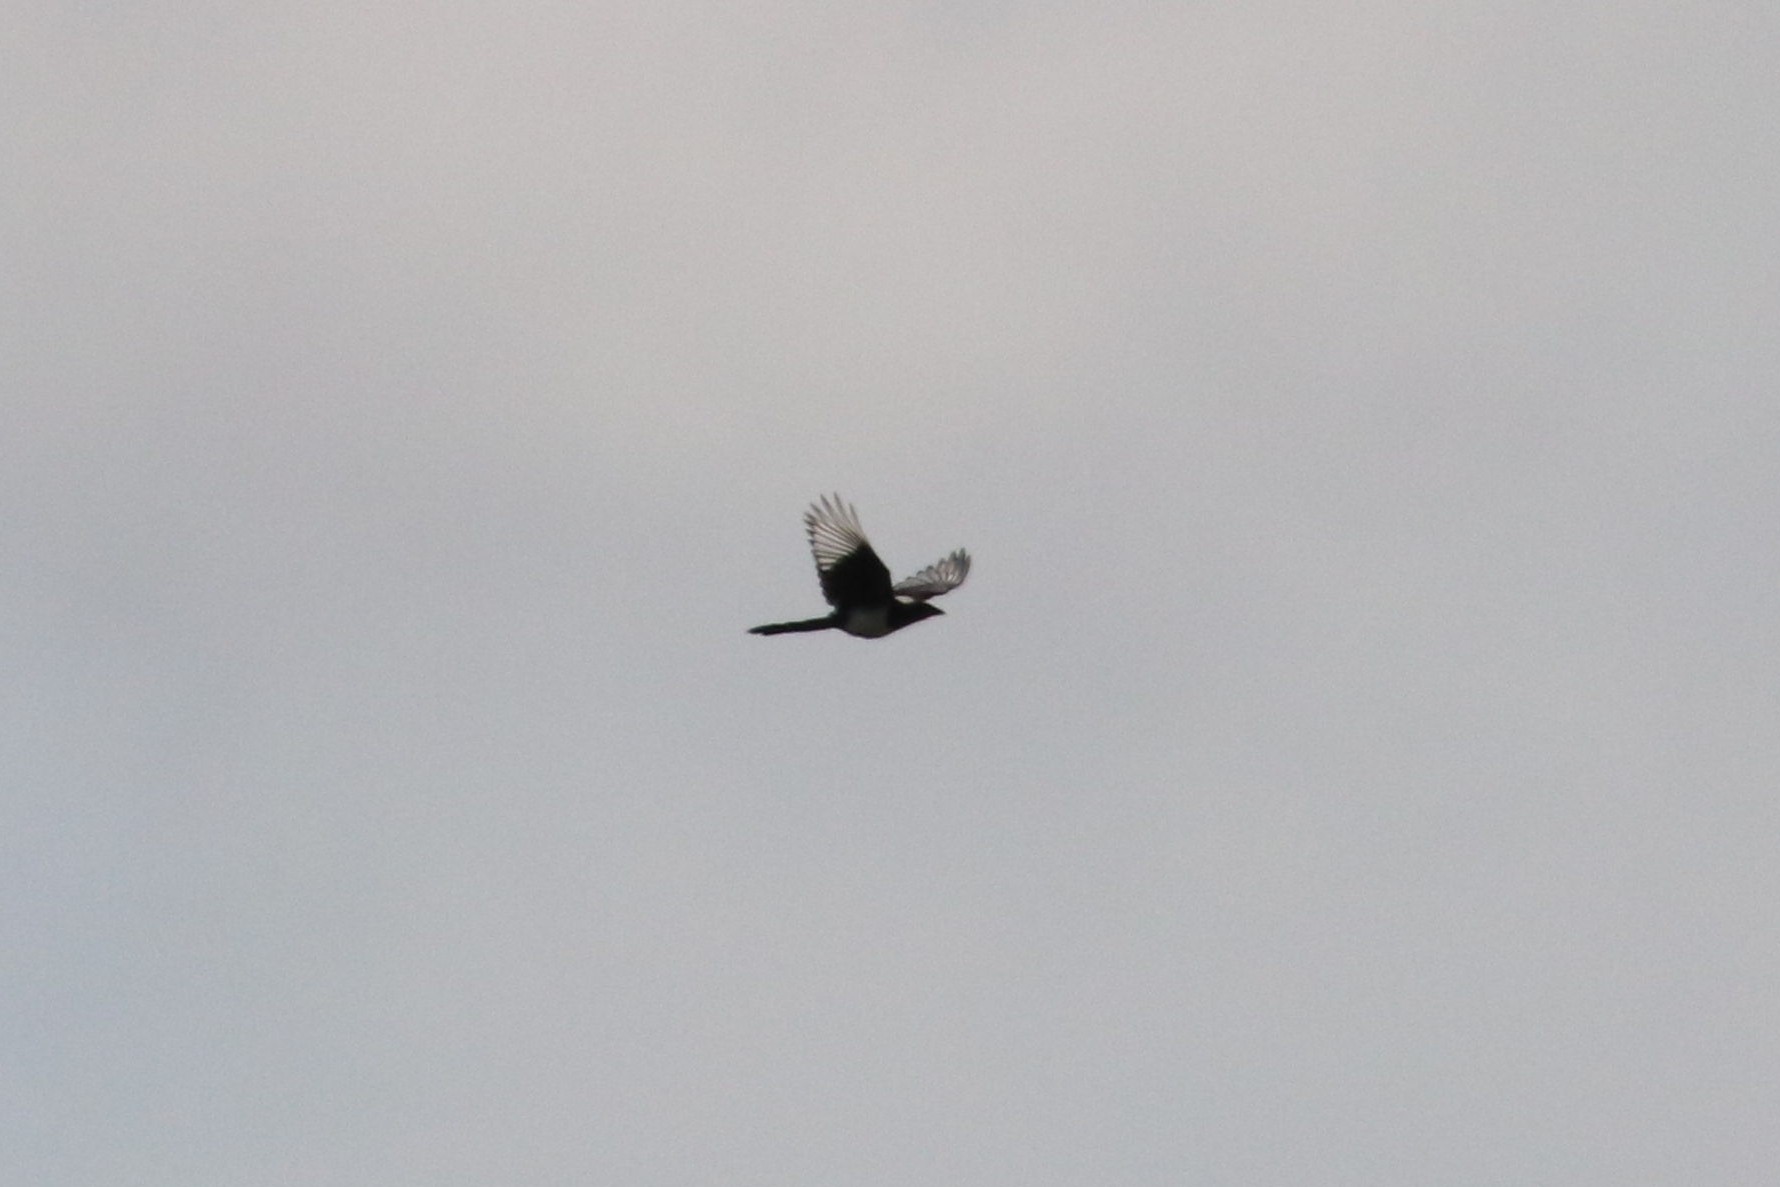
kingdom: Animalia
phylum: Chordata
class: Aves
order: Passeriformes
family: Corvidae
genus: Pica
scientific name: Pica pica
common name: Eurasian magpie
